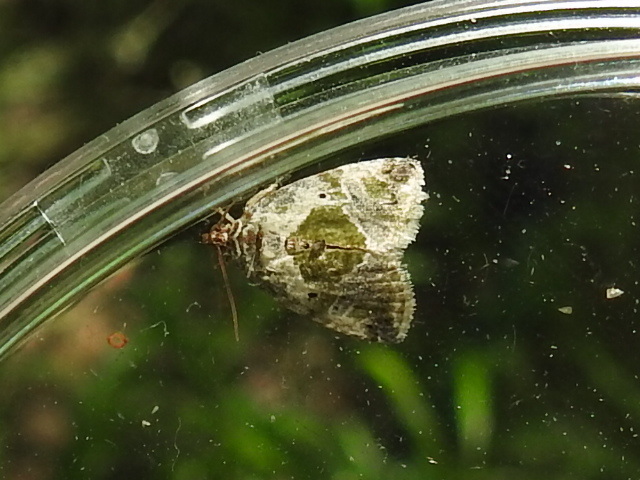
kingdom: Animalia
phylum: Arthropoda
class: Insecta
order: Lepidoptera
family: Noctuidae
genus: Maliattha
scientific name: Maliattha synochitis
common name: Black-dotted glyph
